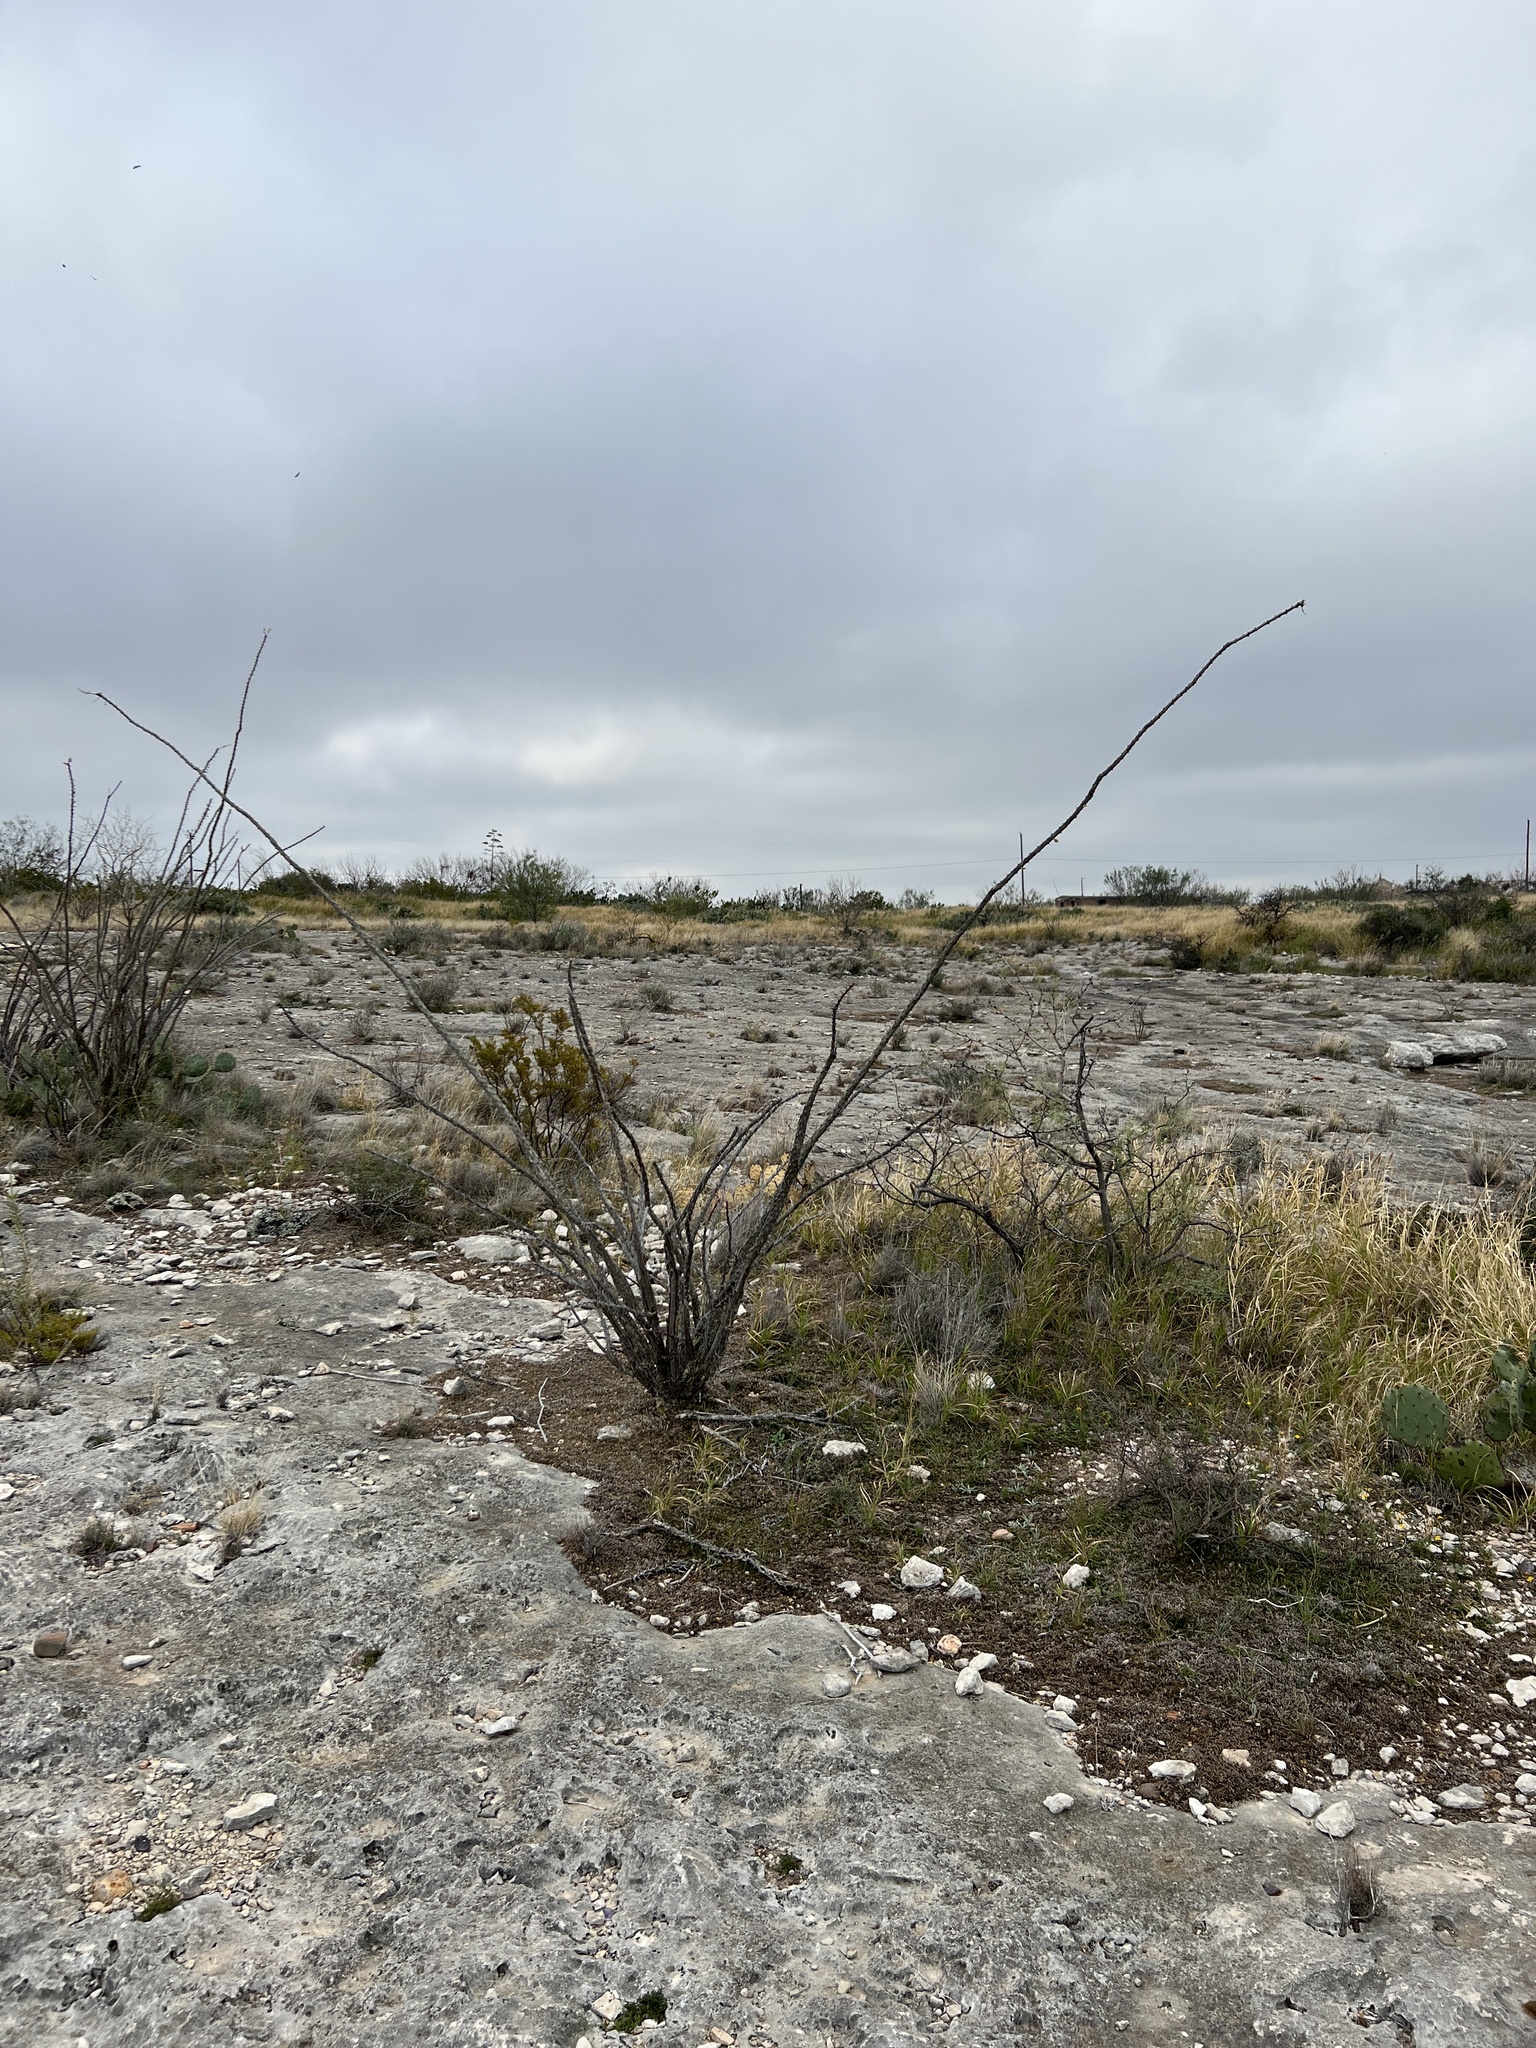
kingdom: Plantae
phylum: Tracheophyta
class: Magnoliopsida
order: Ericales
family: Fouquieriaceae
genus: Fouquieria
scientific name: Fouquieria splendens
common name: Vine-cactus
